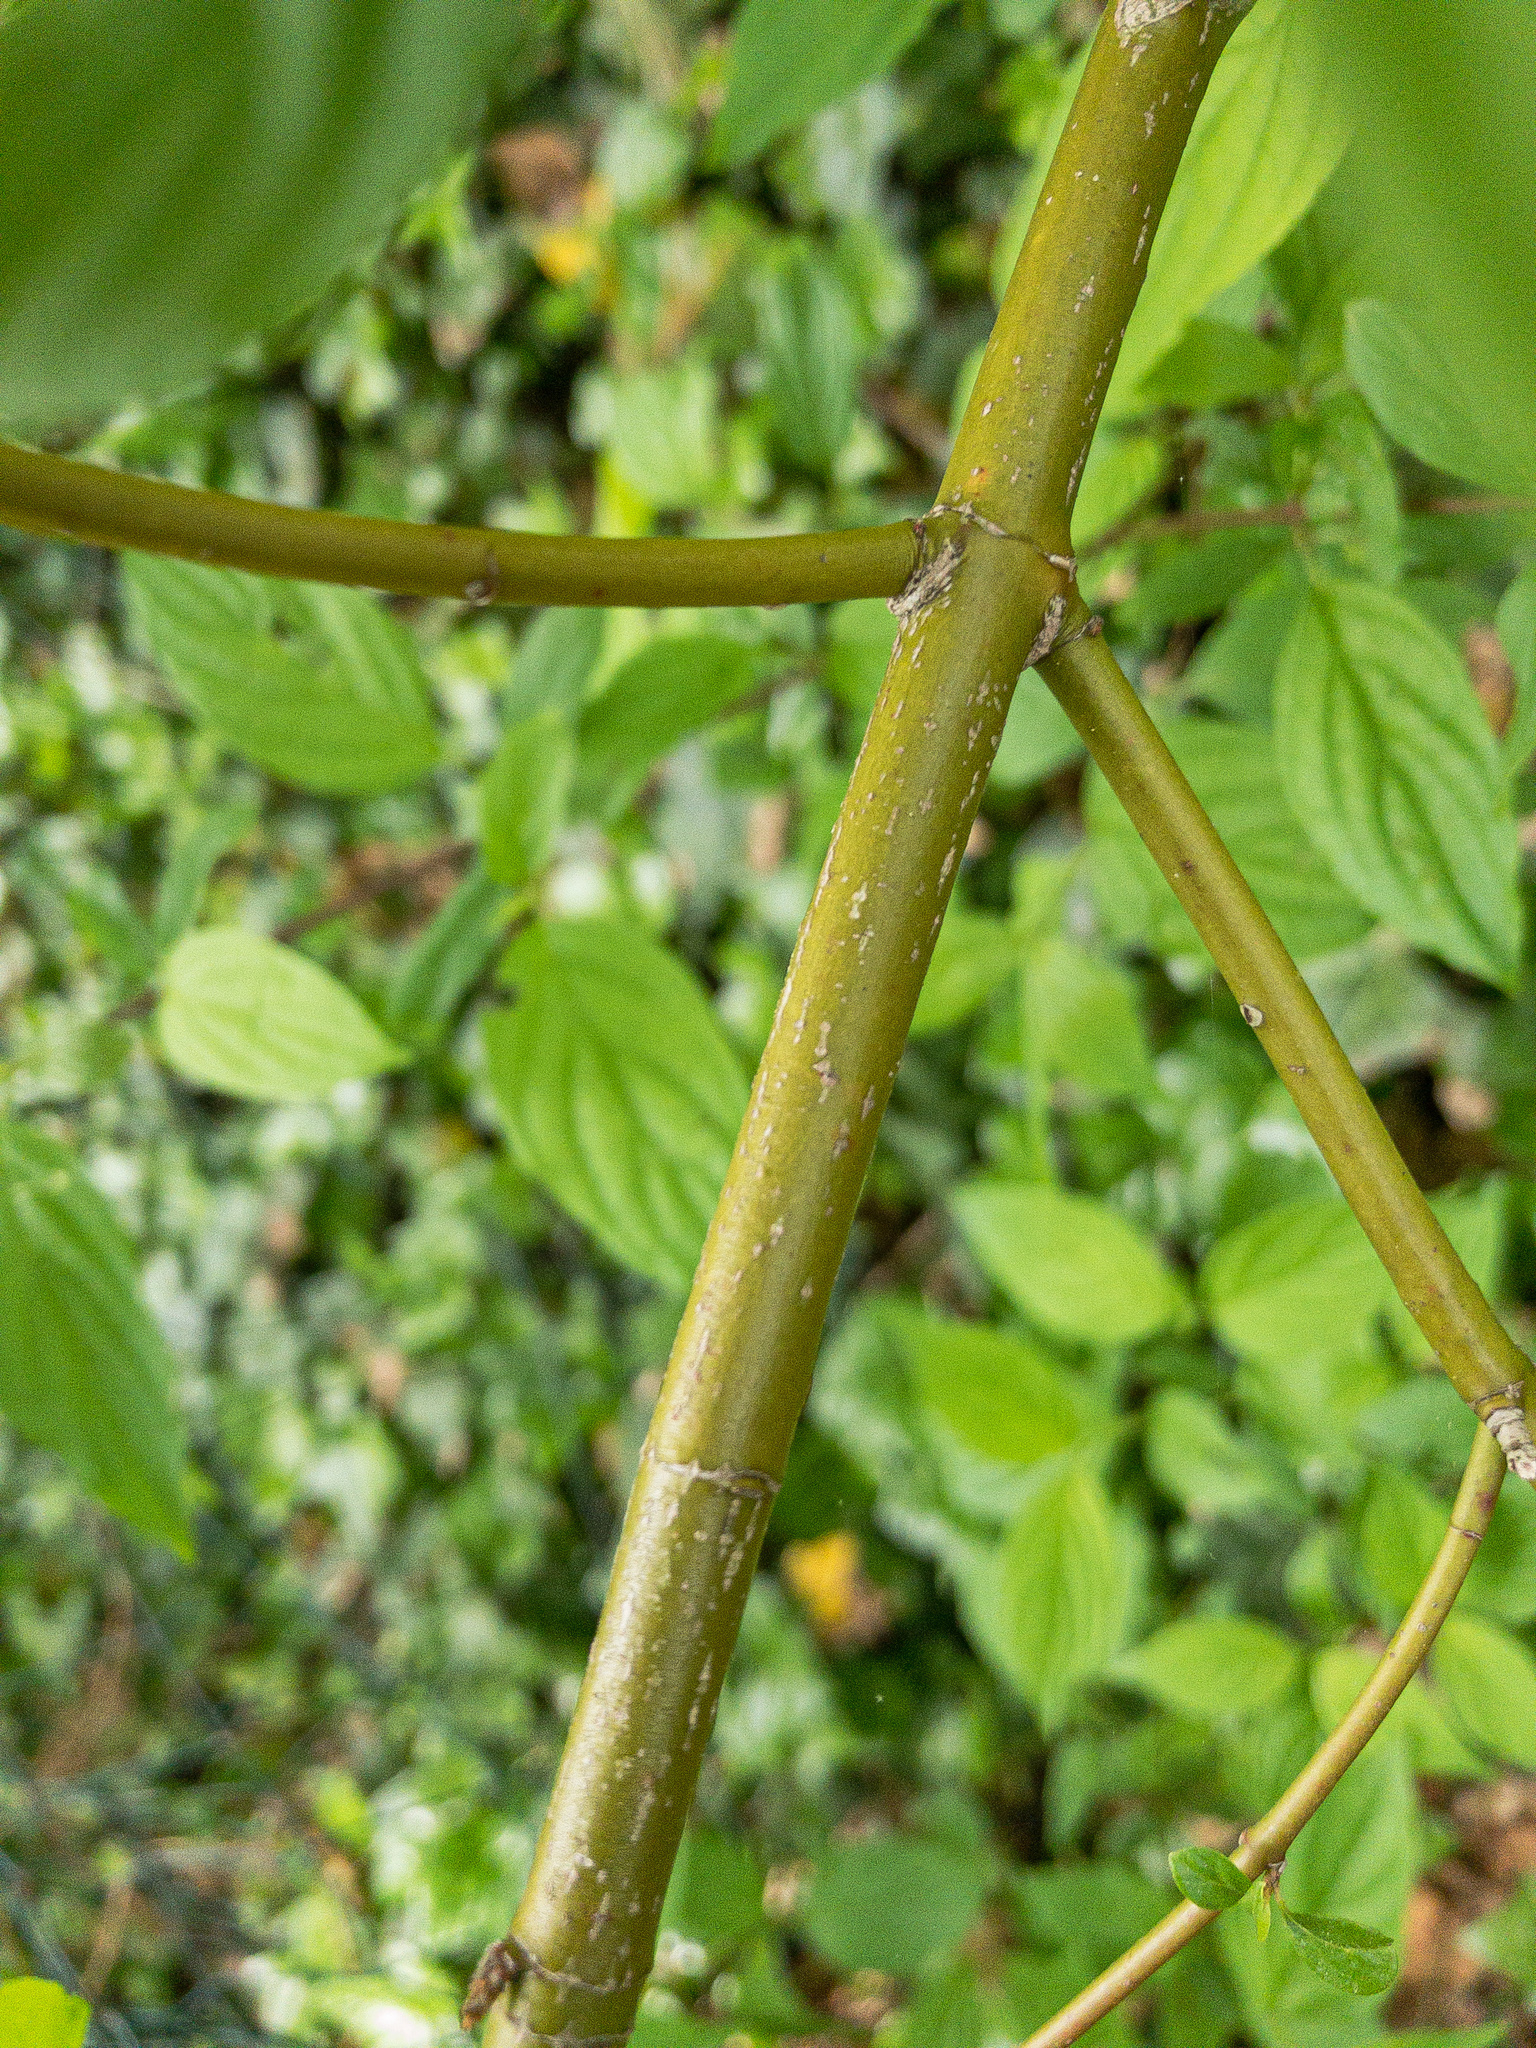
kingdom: Plantae
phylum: Tracheophyta
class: Magnoliopsida
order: Cornales
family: Cornaceae
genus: Cornus
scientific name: Cornus florida
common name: Flowering dogwood
